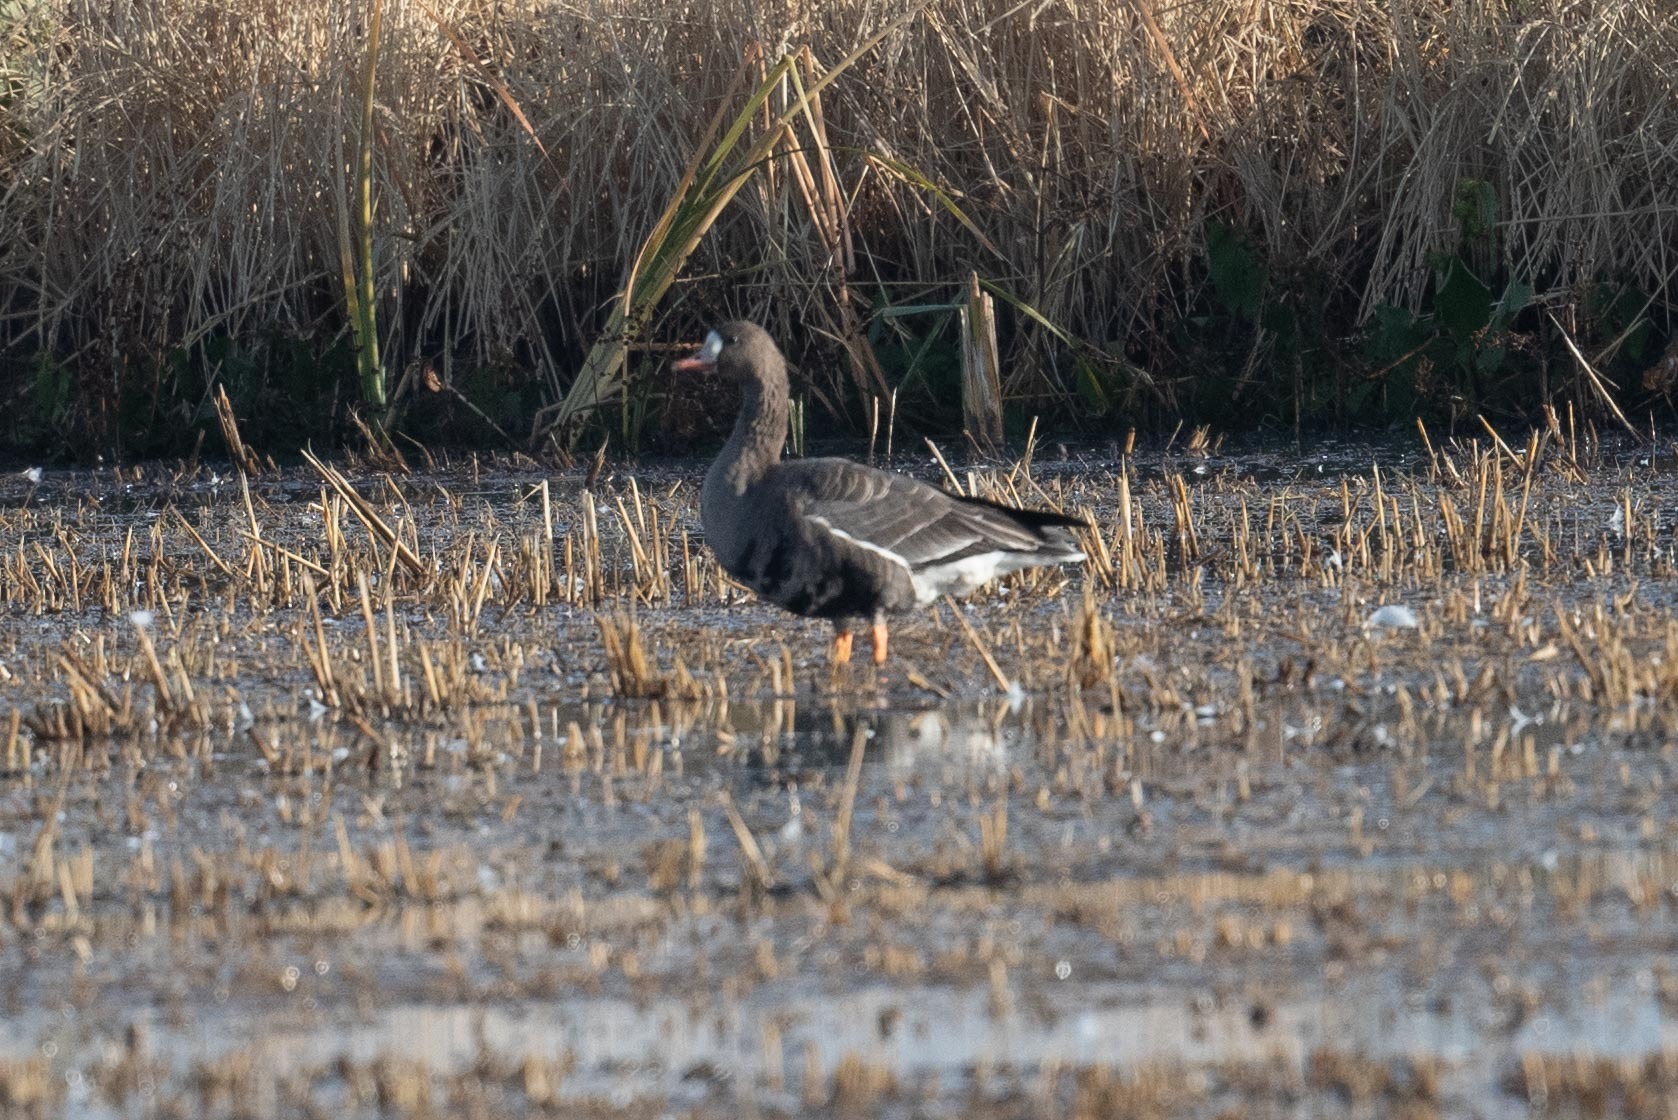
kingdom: Animalia
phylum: Chordata
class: Aves
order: Anseriformes
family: Anatidae
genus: Anser
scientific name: Anser albifrons
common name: Greater white-fronted goose
